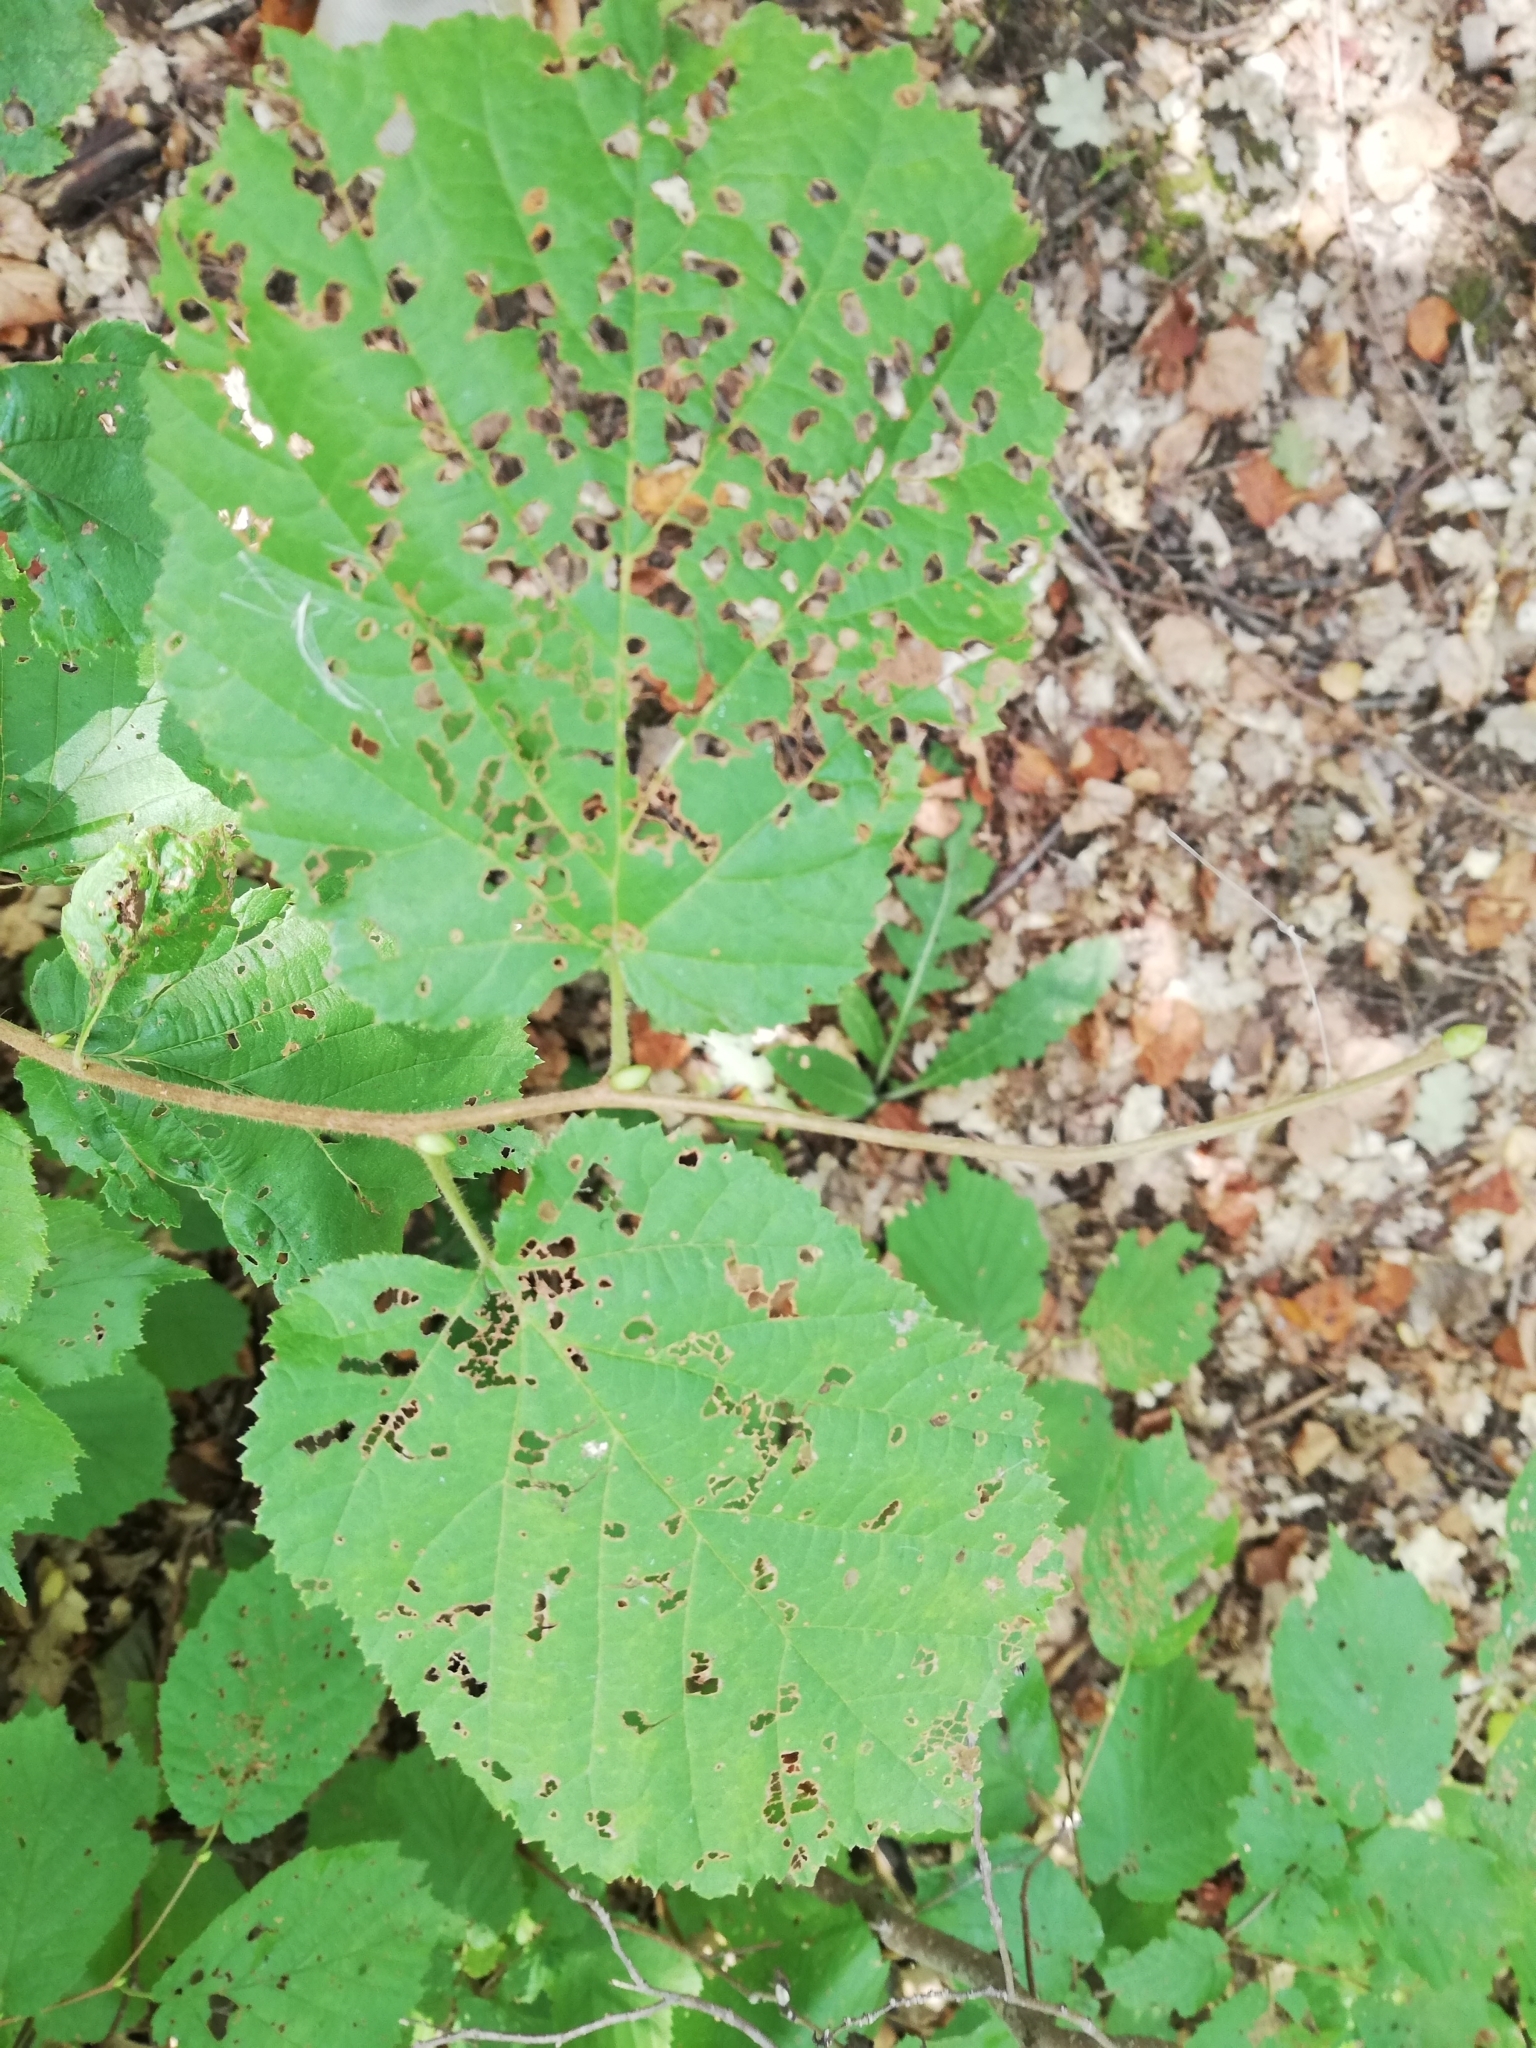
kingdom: Animalia
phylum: Arthropoda
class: Insecta
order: Coleoptera
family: Chrysomelidae
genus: Agelastica
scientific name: Agelastica alni
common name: Alder leaf beetle
